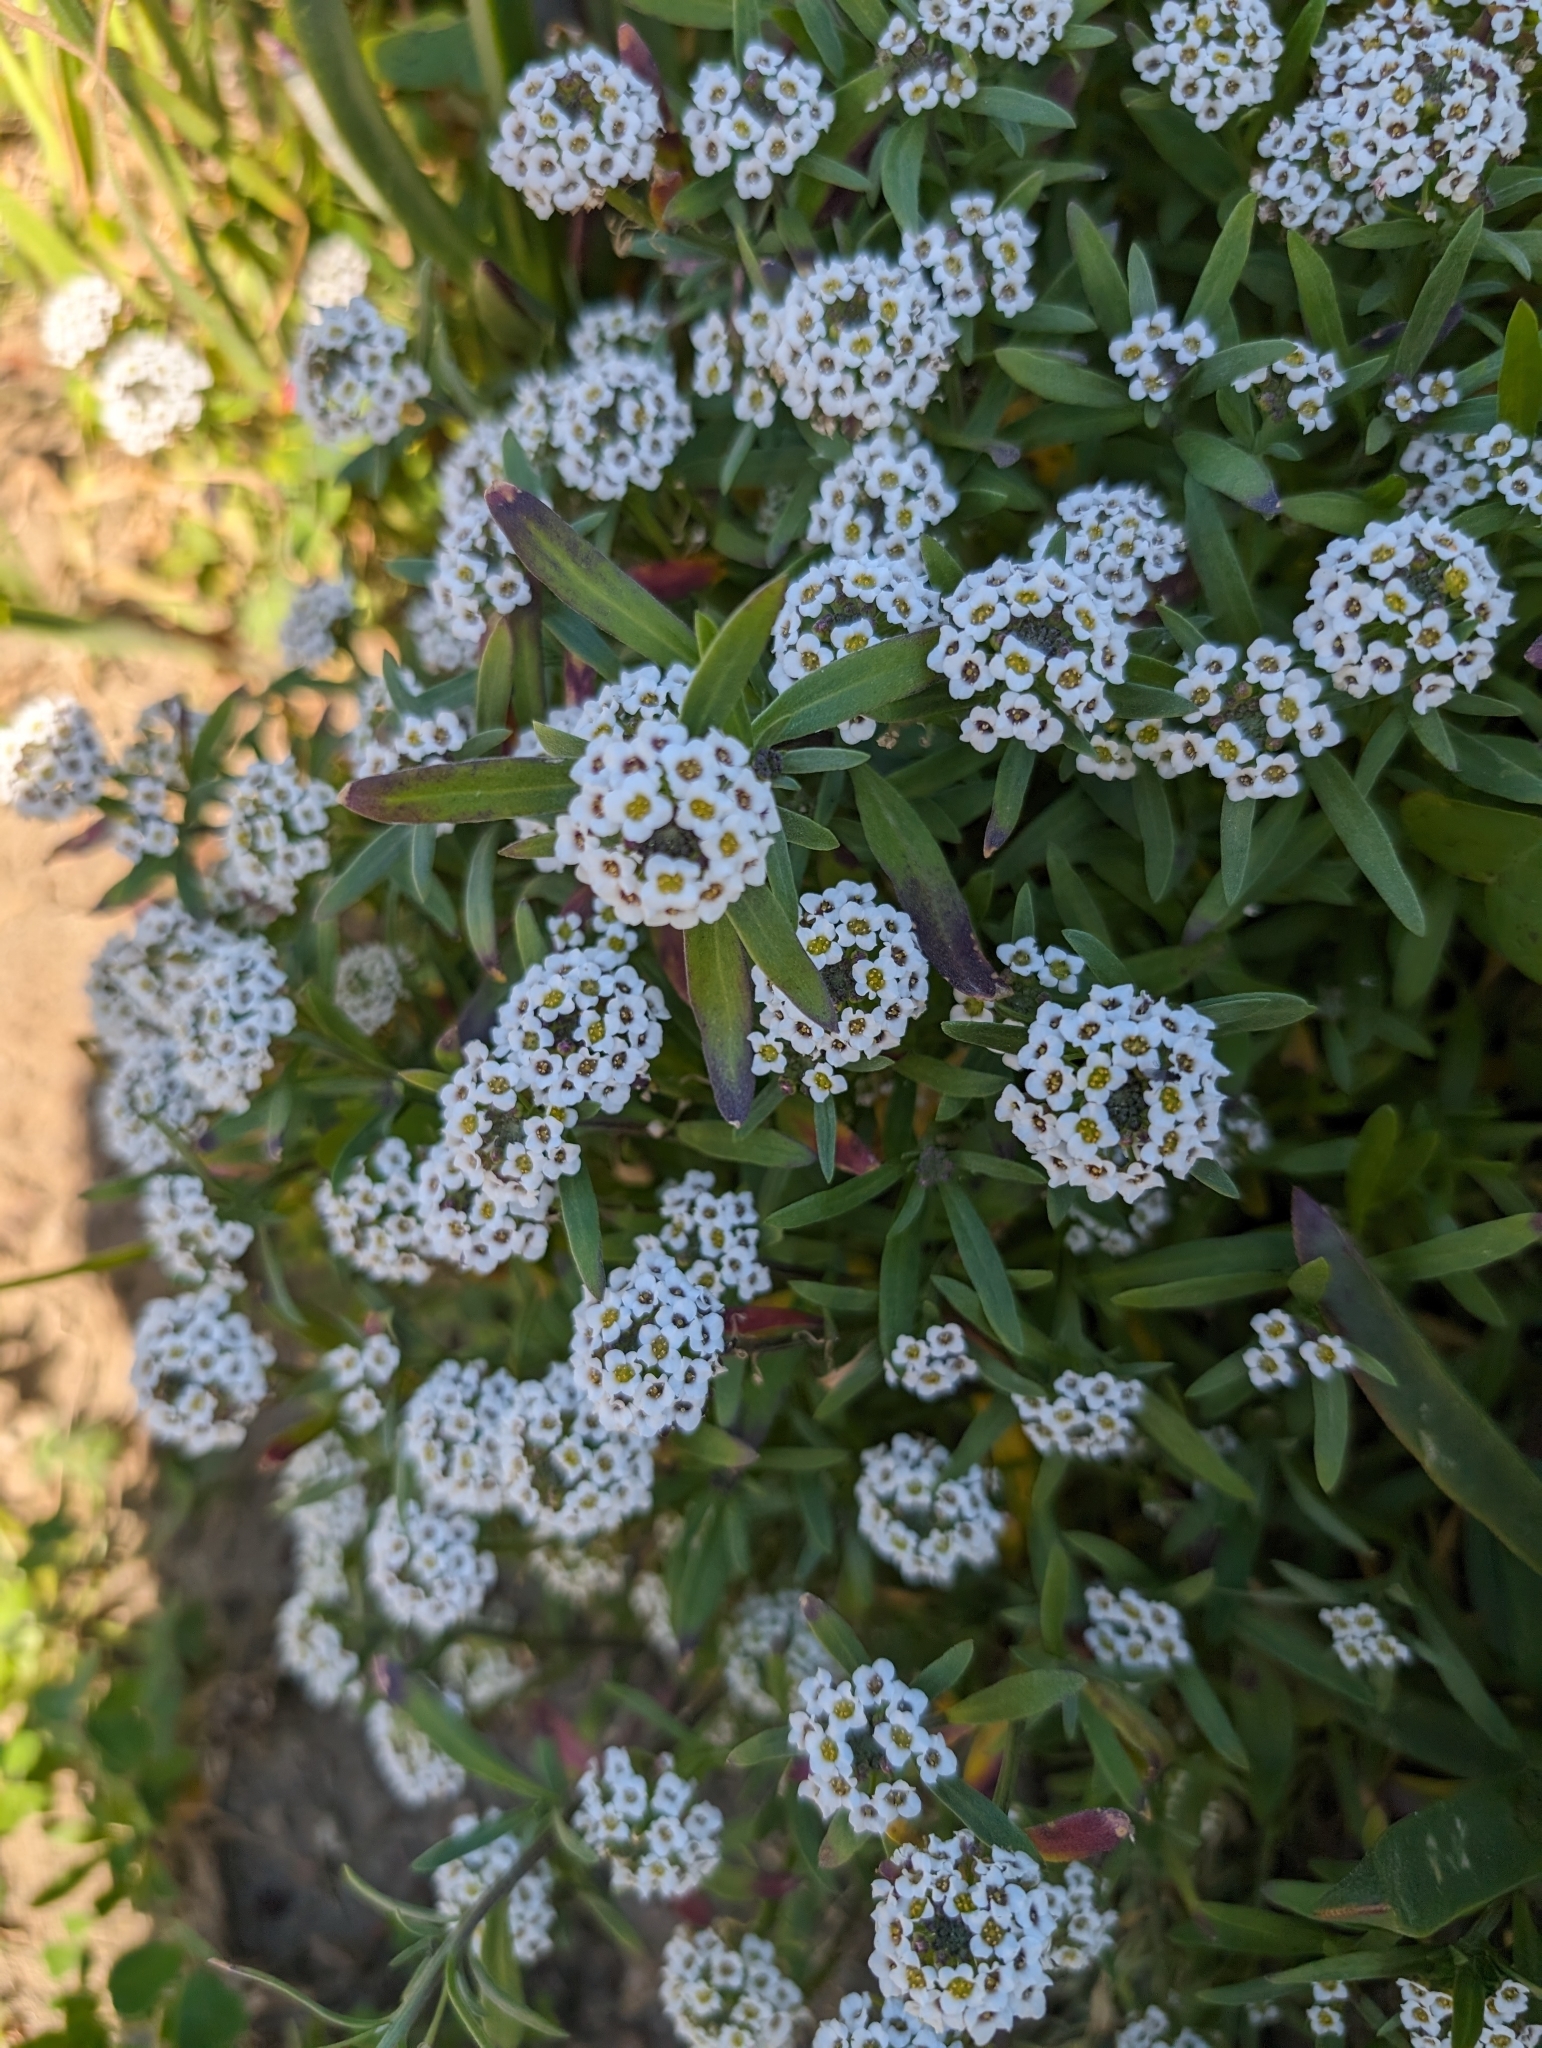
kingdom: Plantae
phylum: Tracheophyta
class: Magnoliopsida
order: Brassicales
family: Brassicaceae
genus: Lobularia
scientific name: Lobularia maritima
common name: Sweet alison
